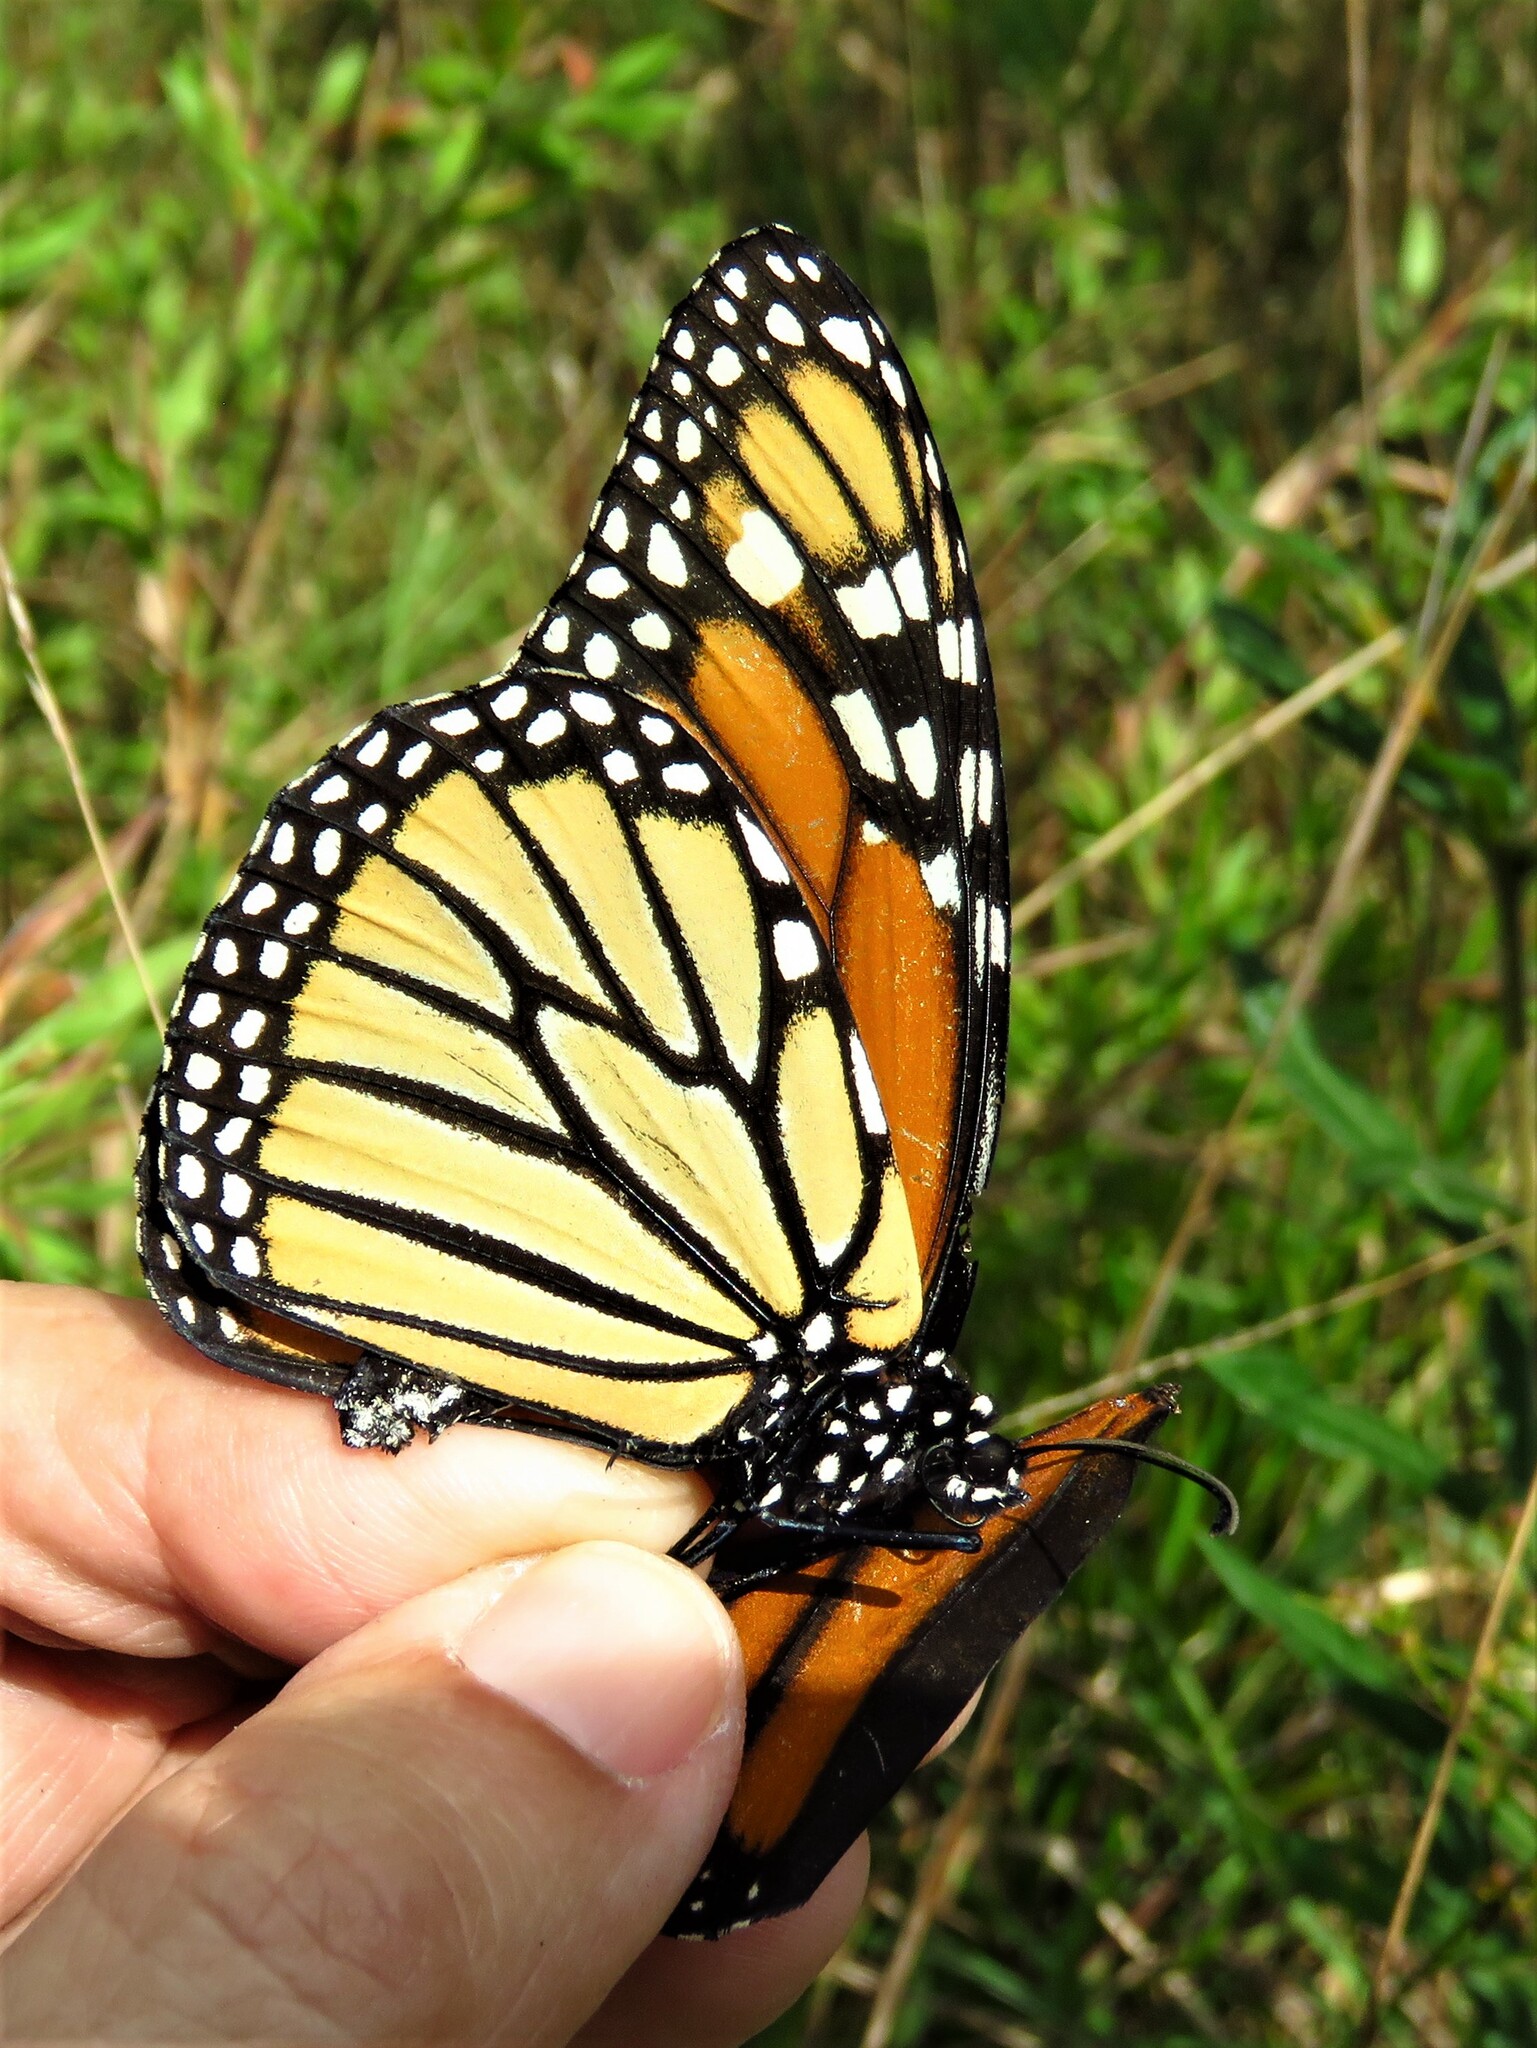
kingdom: Animalia
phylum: Arthropoda
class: Insecta
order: Lepidoptera
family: Nymphalidae
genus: Danaus
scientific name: Danaus plexippus
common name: Monarch
